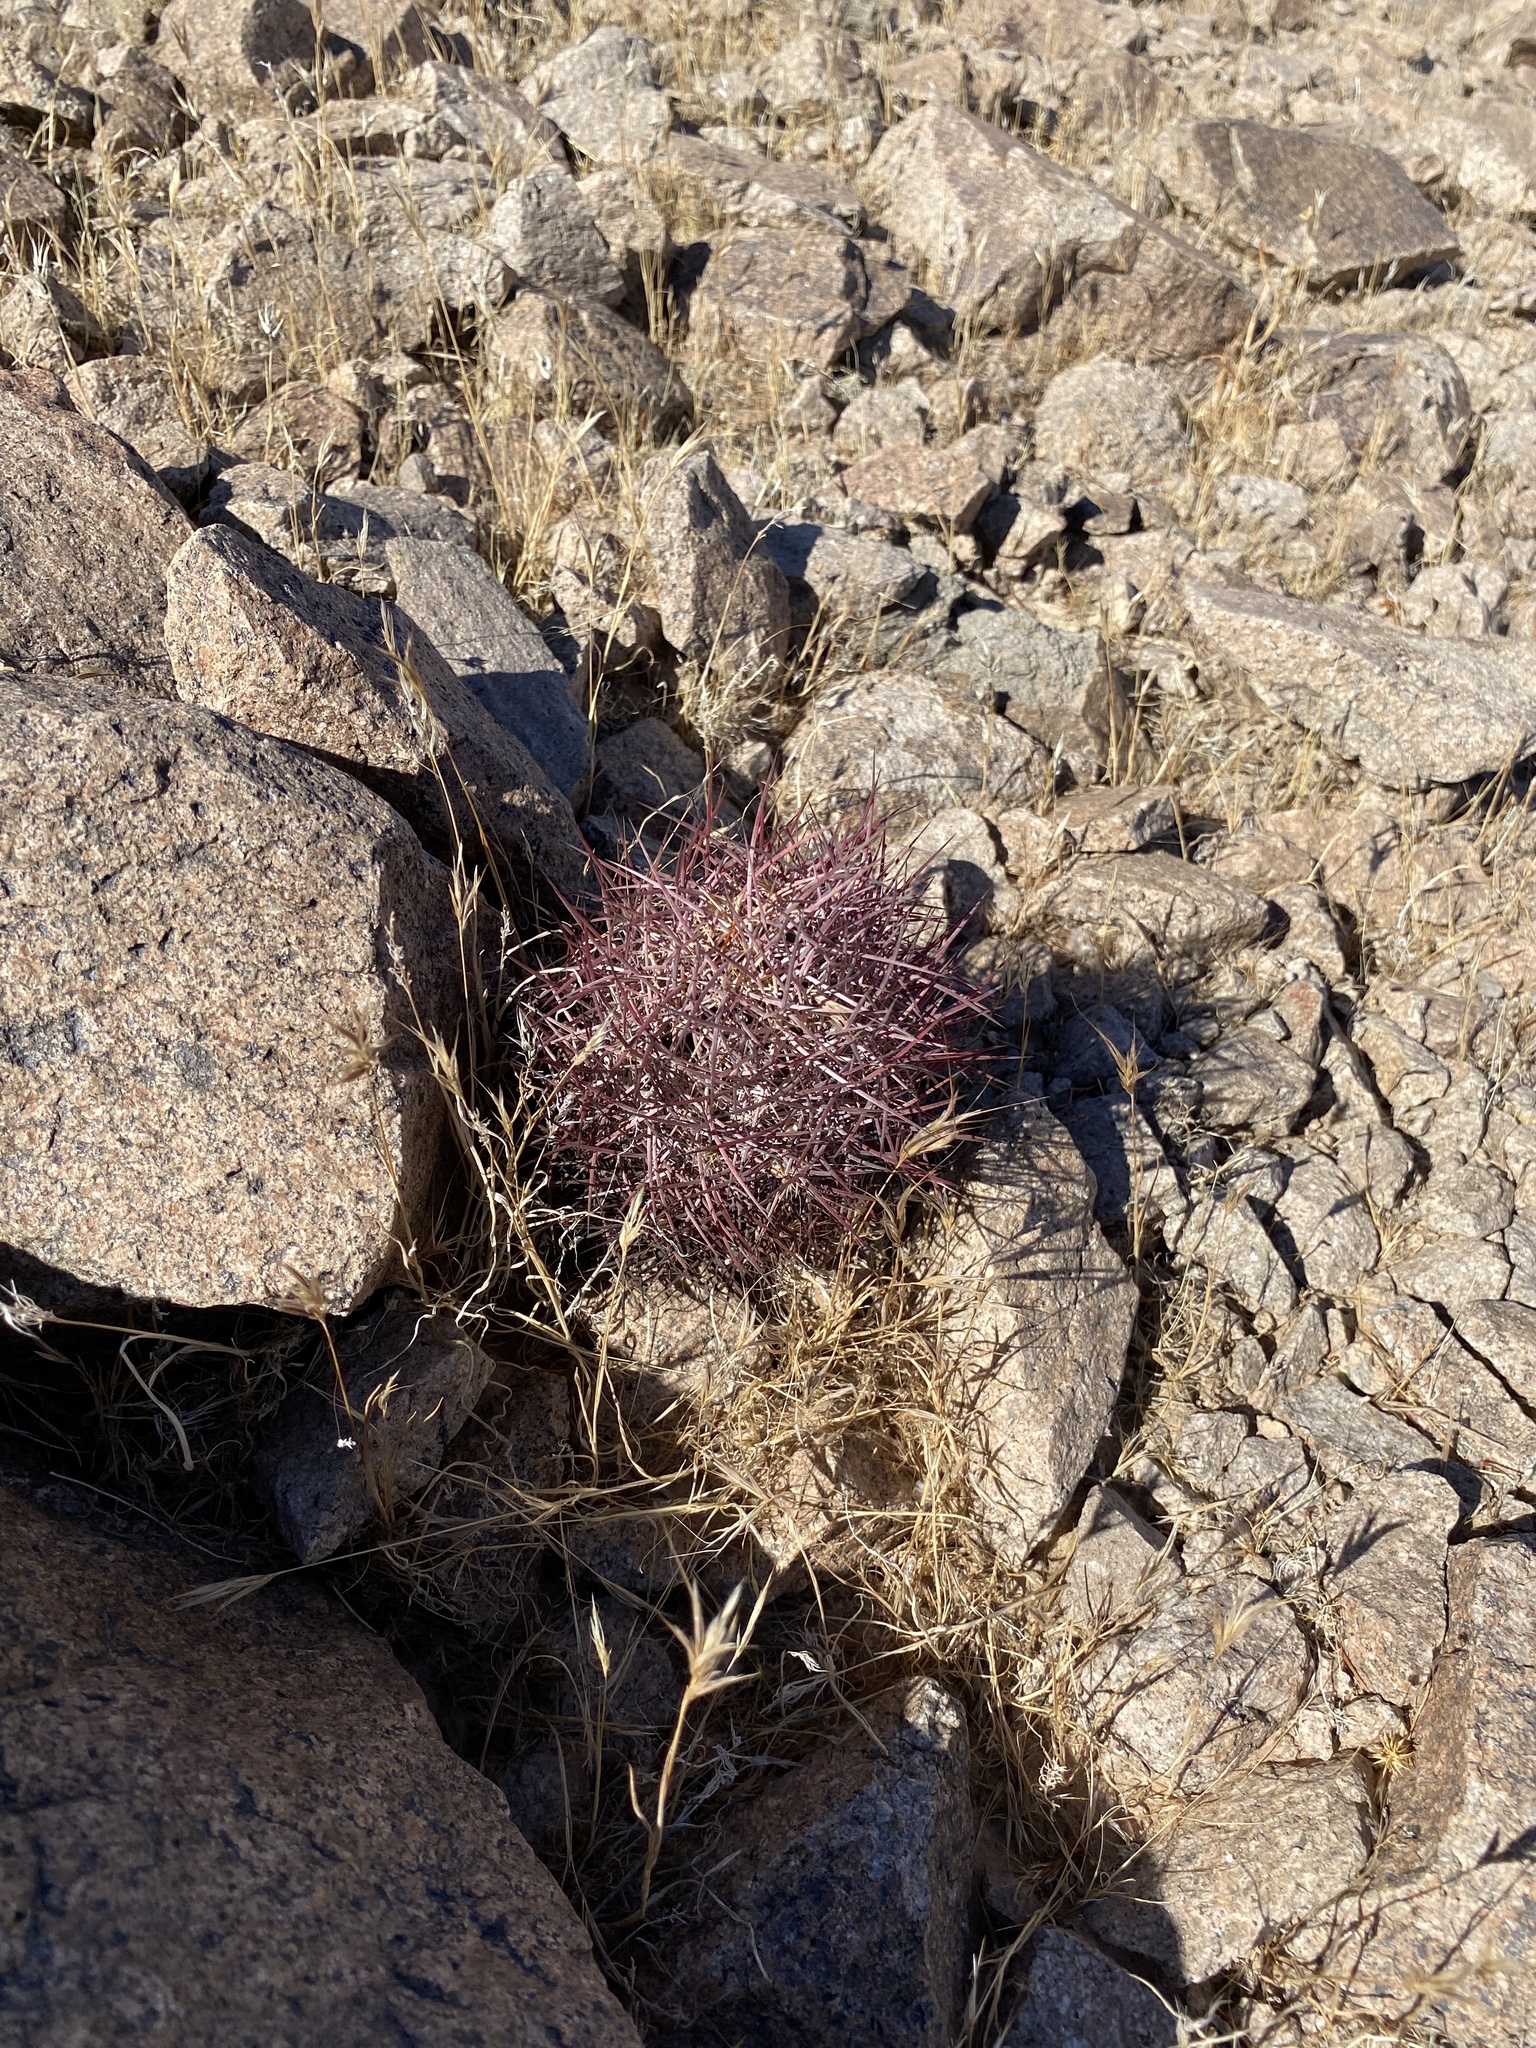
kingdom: Plantae
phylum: Tracheophyta
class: Magnoliopsida
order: Caryophyllales
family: Cactaceae
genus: Sclerocactus
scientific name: Sclerocactus johnsonii
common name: Eight-spine fishhook cactus
